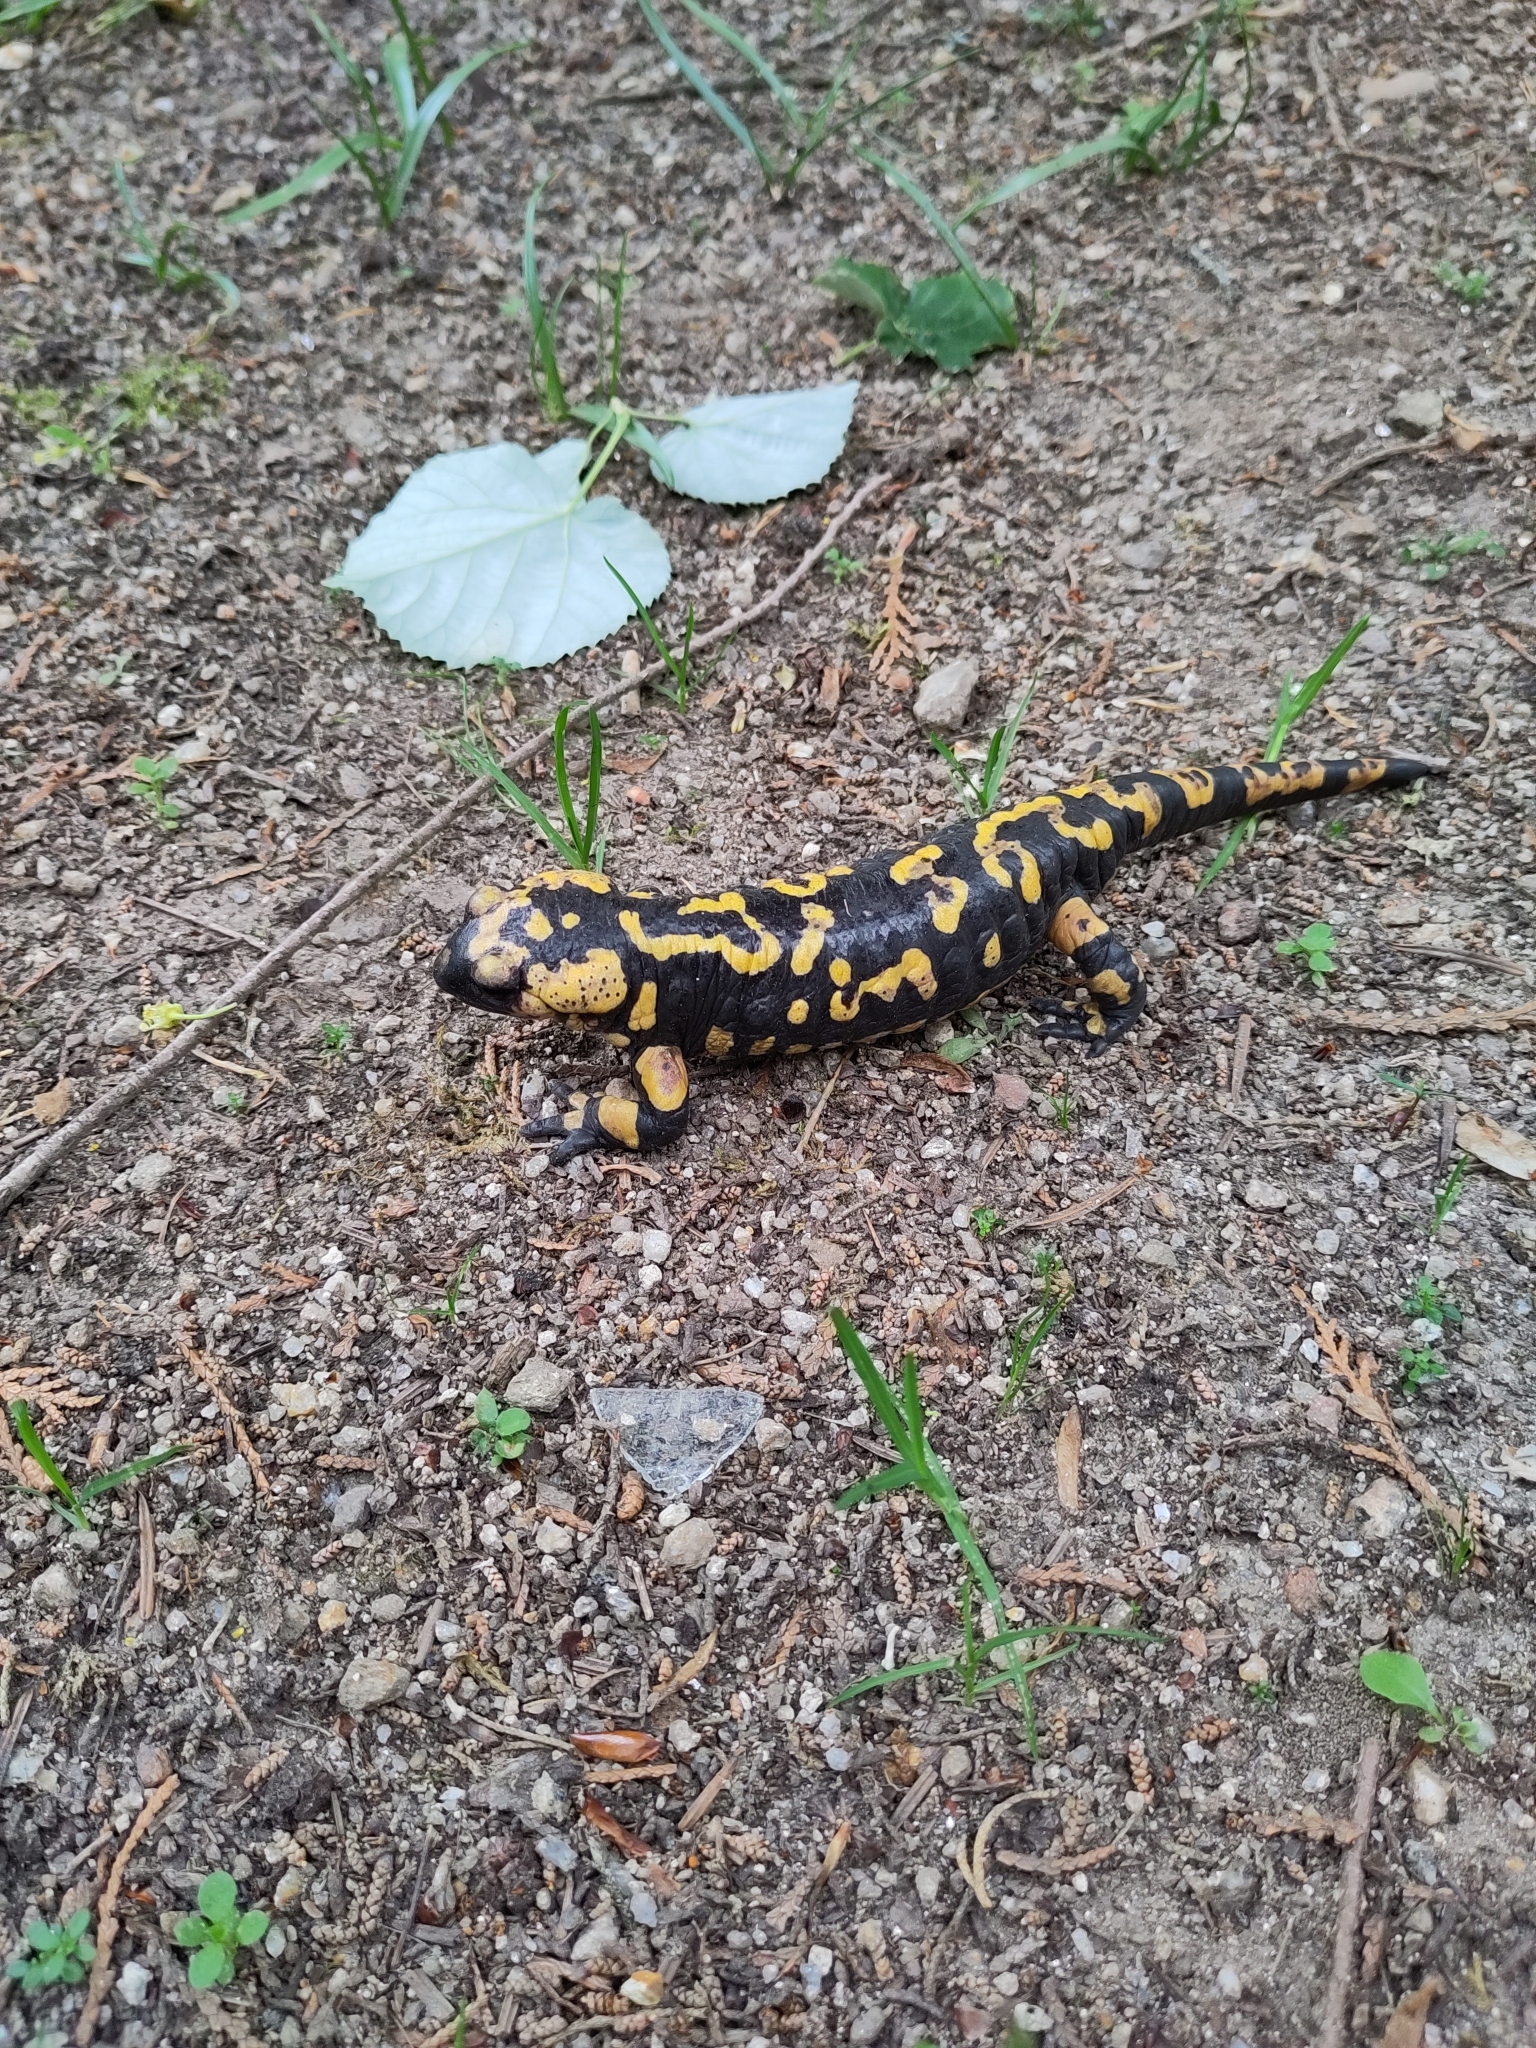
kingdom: Animalia
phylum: Chordata
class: Amphibia
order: Caudata
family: Salamandridae
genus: Salamandra
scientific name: Salamandra salamandra
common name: Fire salamander
